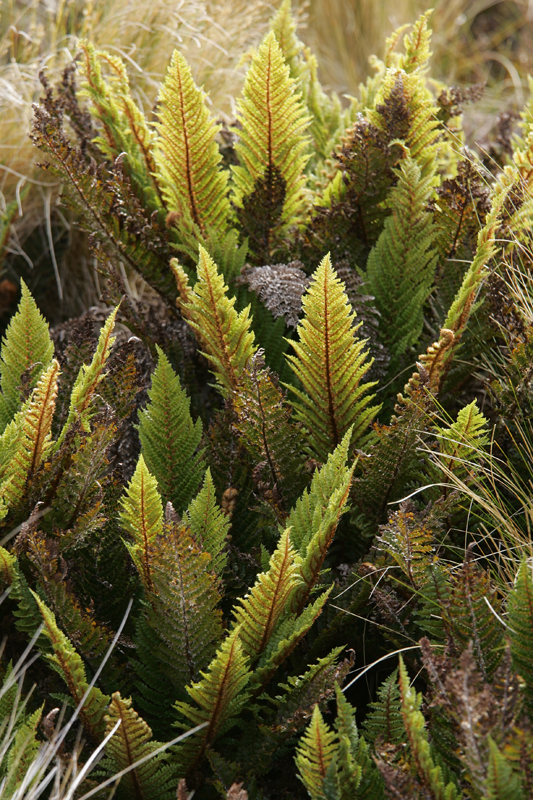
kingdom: Plantae
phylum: Tracheophyta
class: Polypodiopsida
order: Polypodiales
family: Dryopteridaceae
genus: Polystichum
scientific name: Polystichum vestitum
